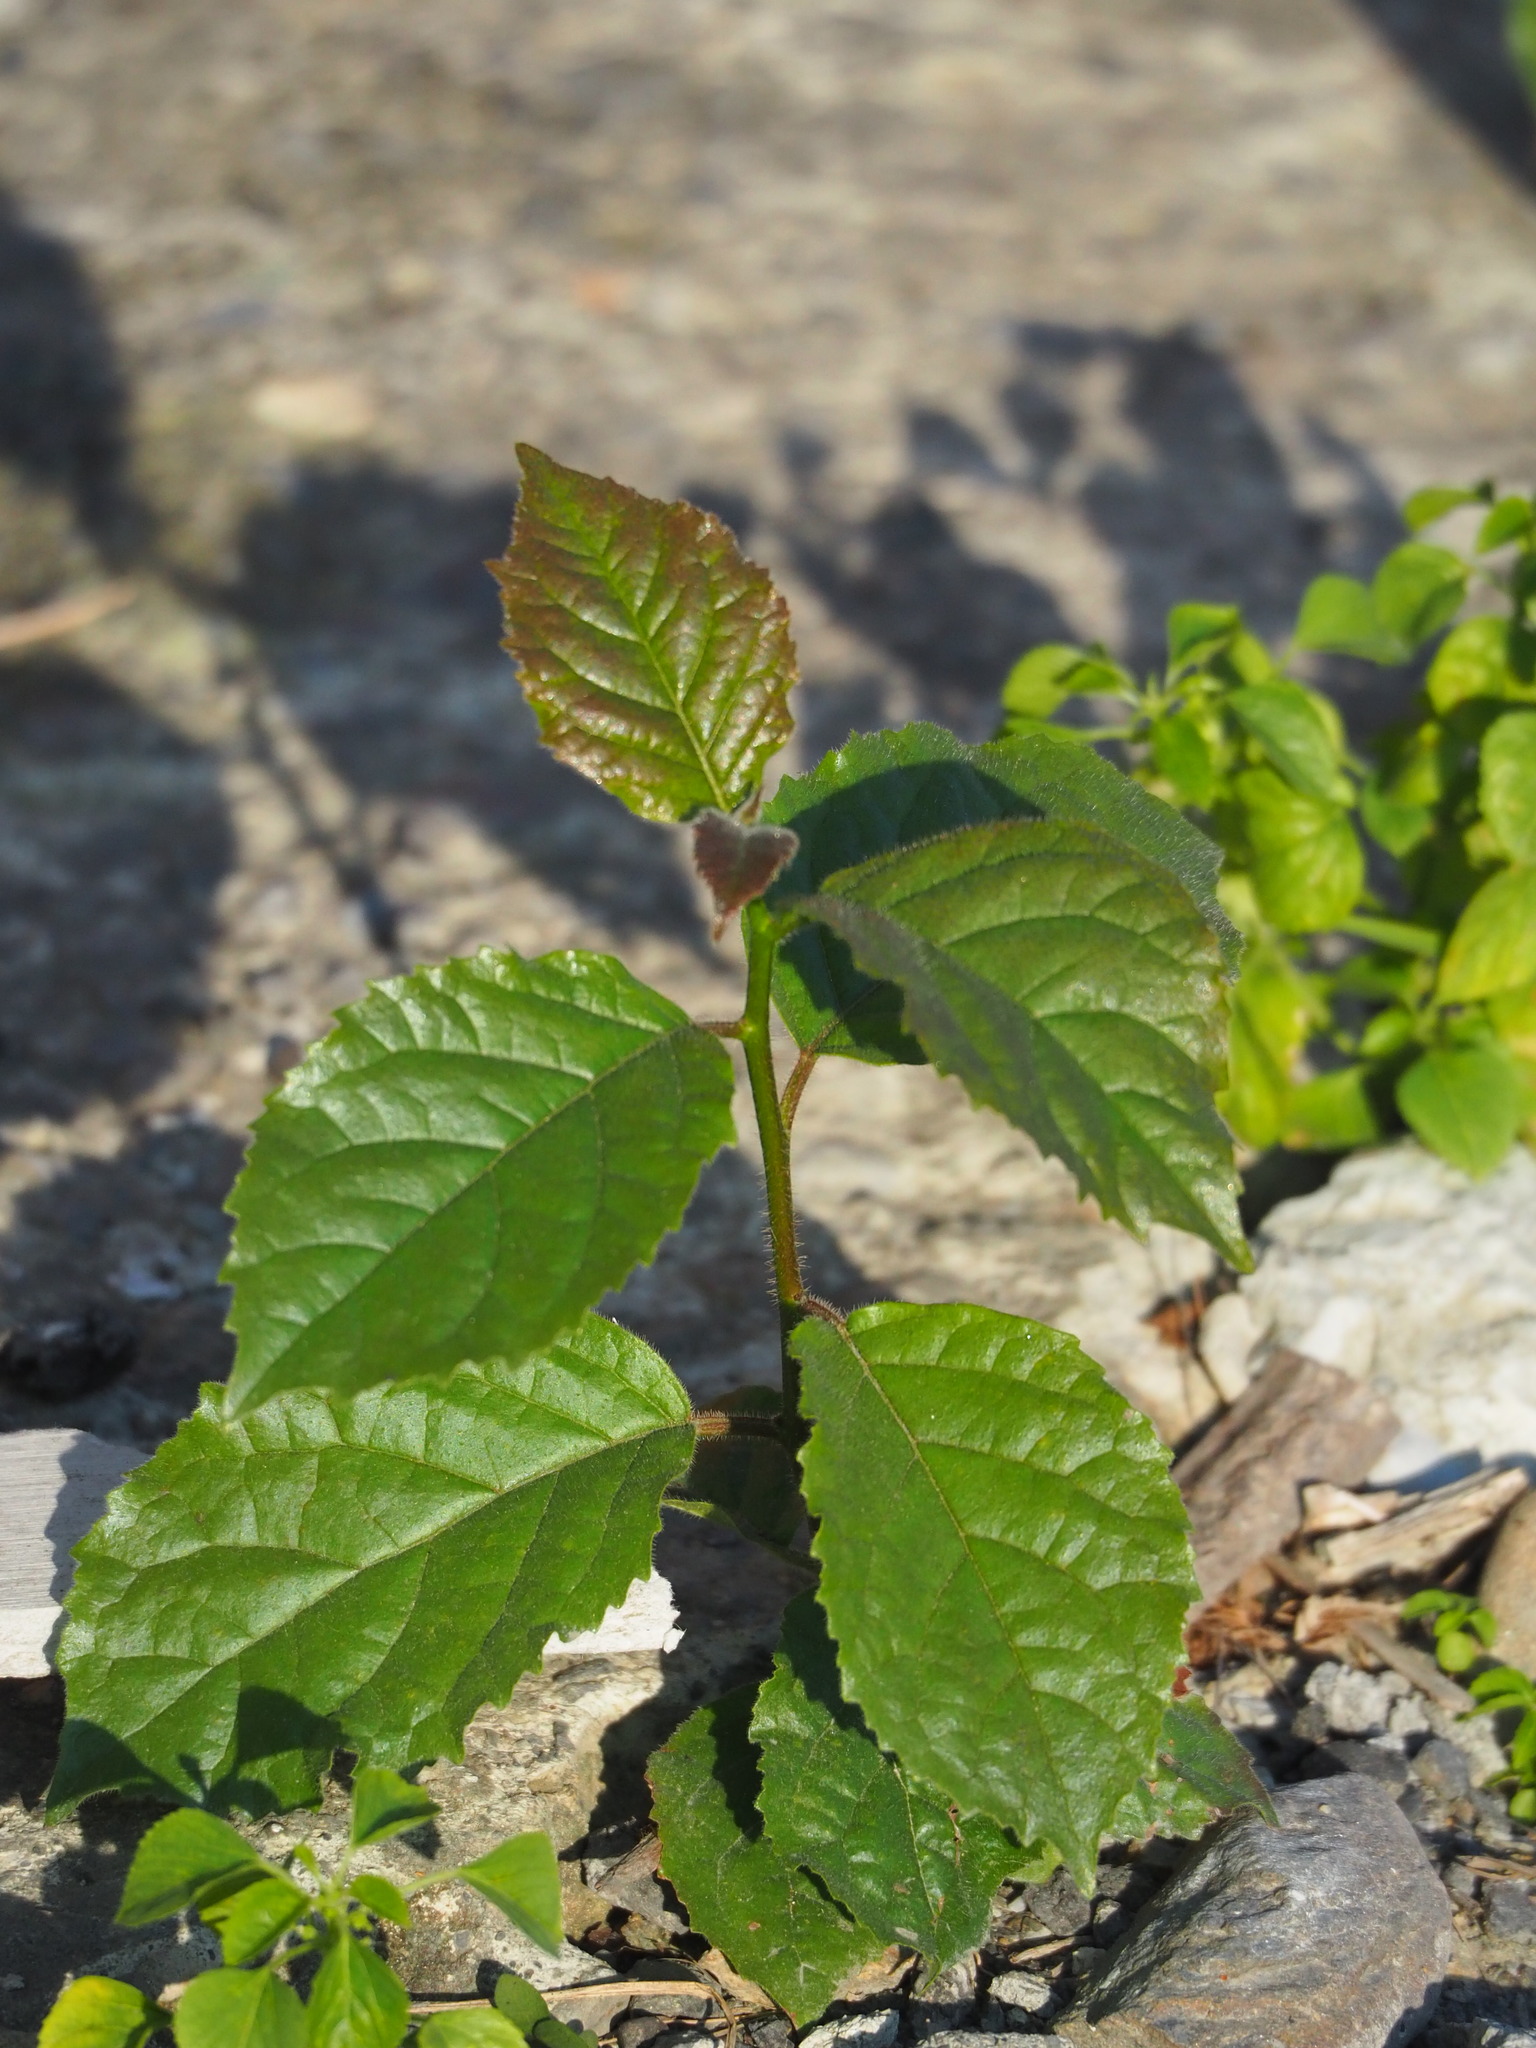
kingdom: Plantae
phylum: Tracheophyta
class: Magnoliopsida
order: Boraginales
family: Ehretiaceae
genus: Ehretia
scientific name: Ehretia resinosa
